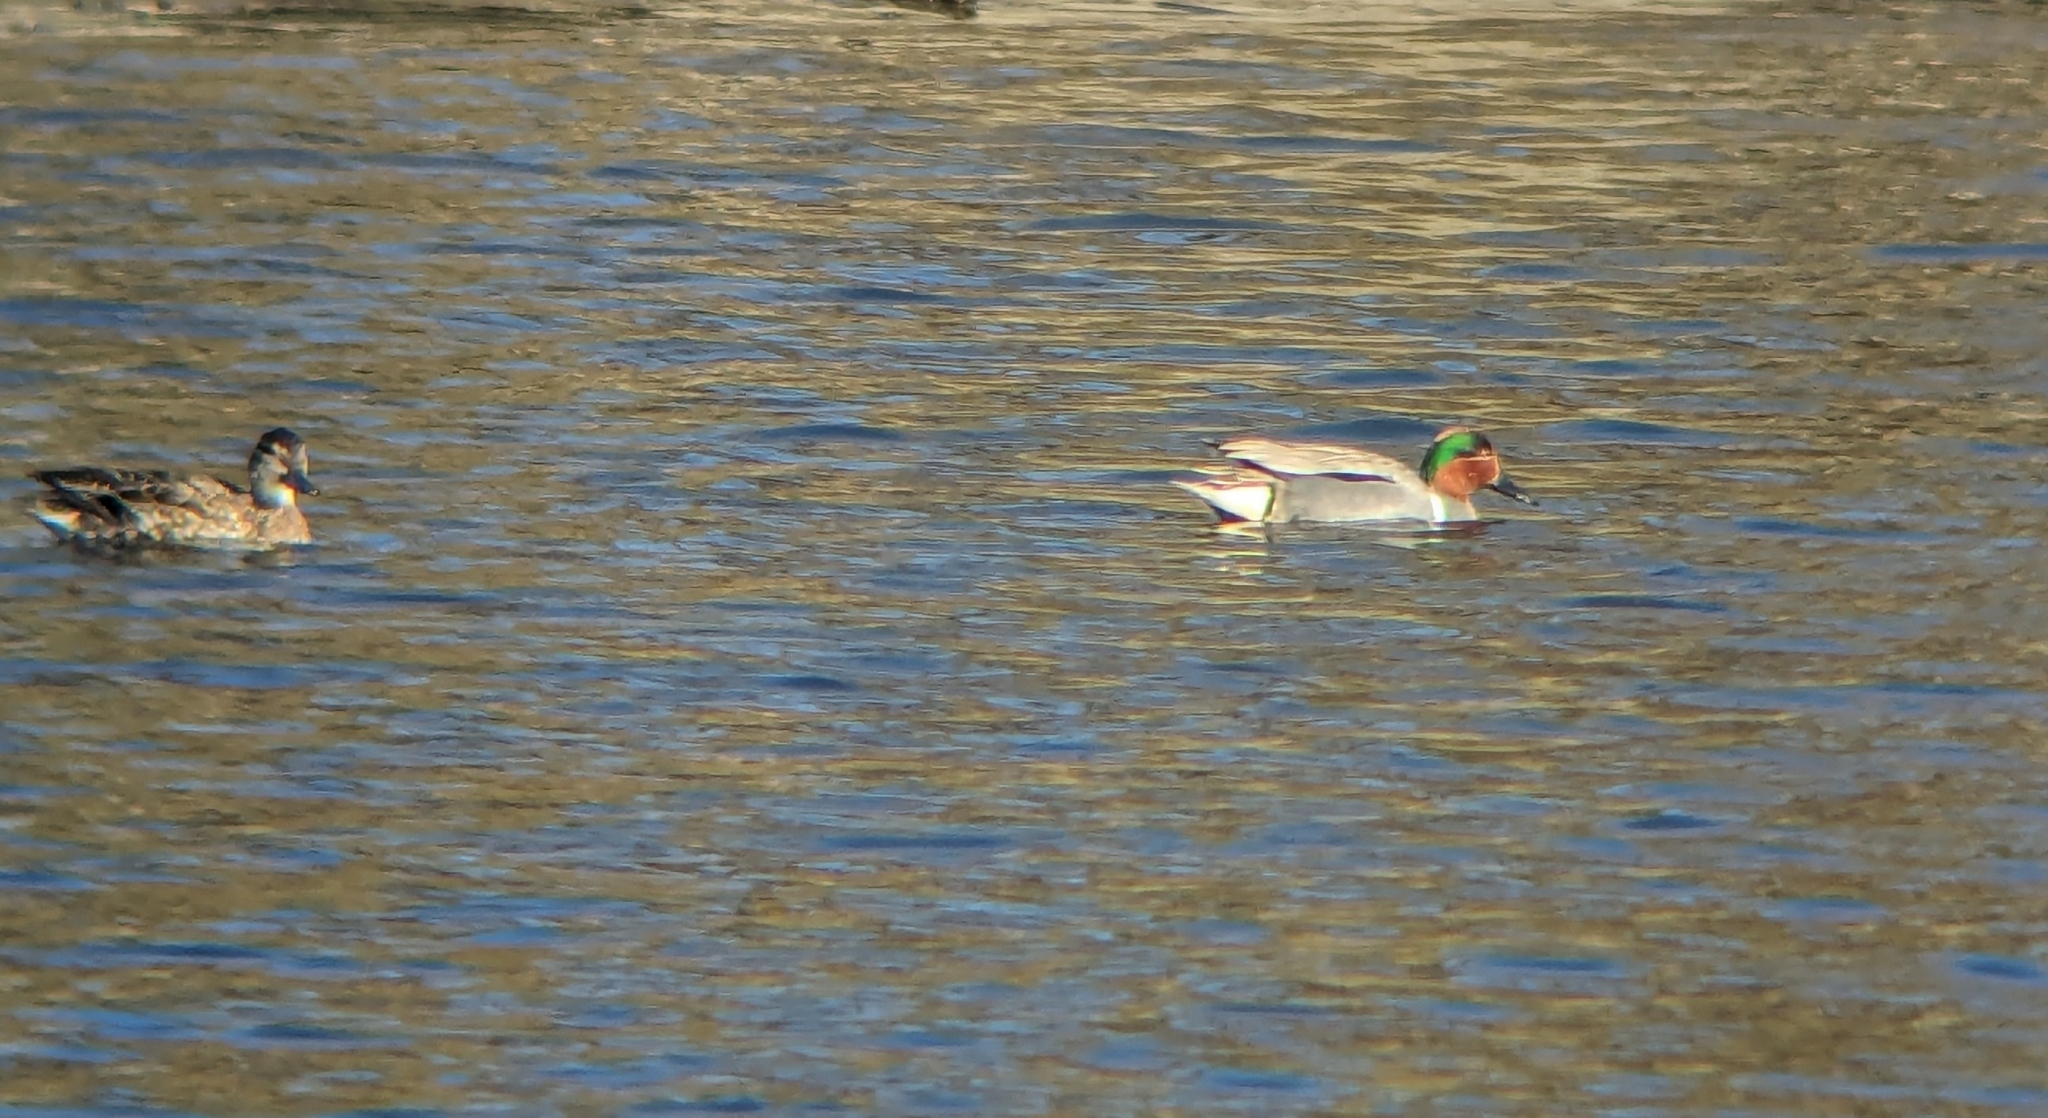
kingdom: Animalia
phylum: Chordata
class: Aves
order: Anseriformes
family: Anatidae
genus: Anas
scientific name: Anas carolinensis
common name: Green-winged teal
